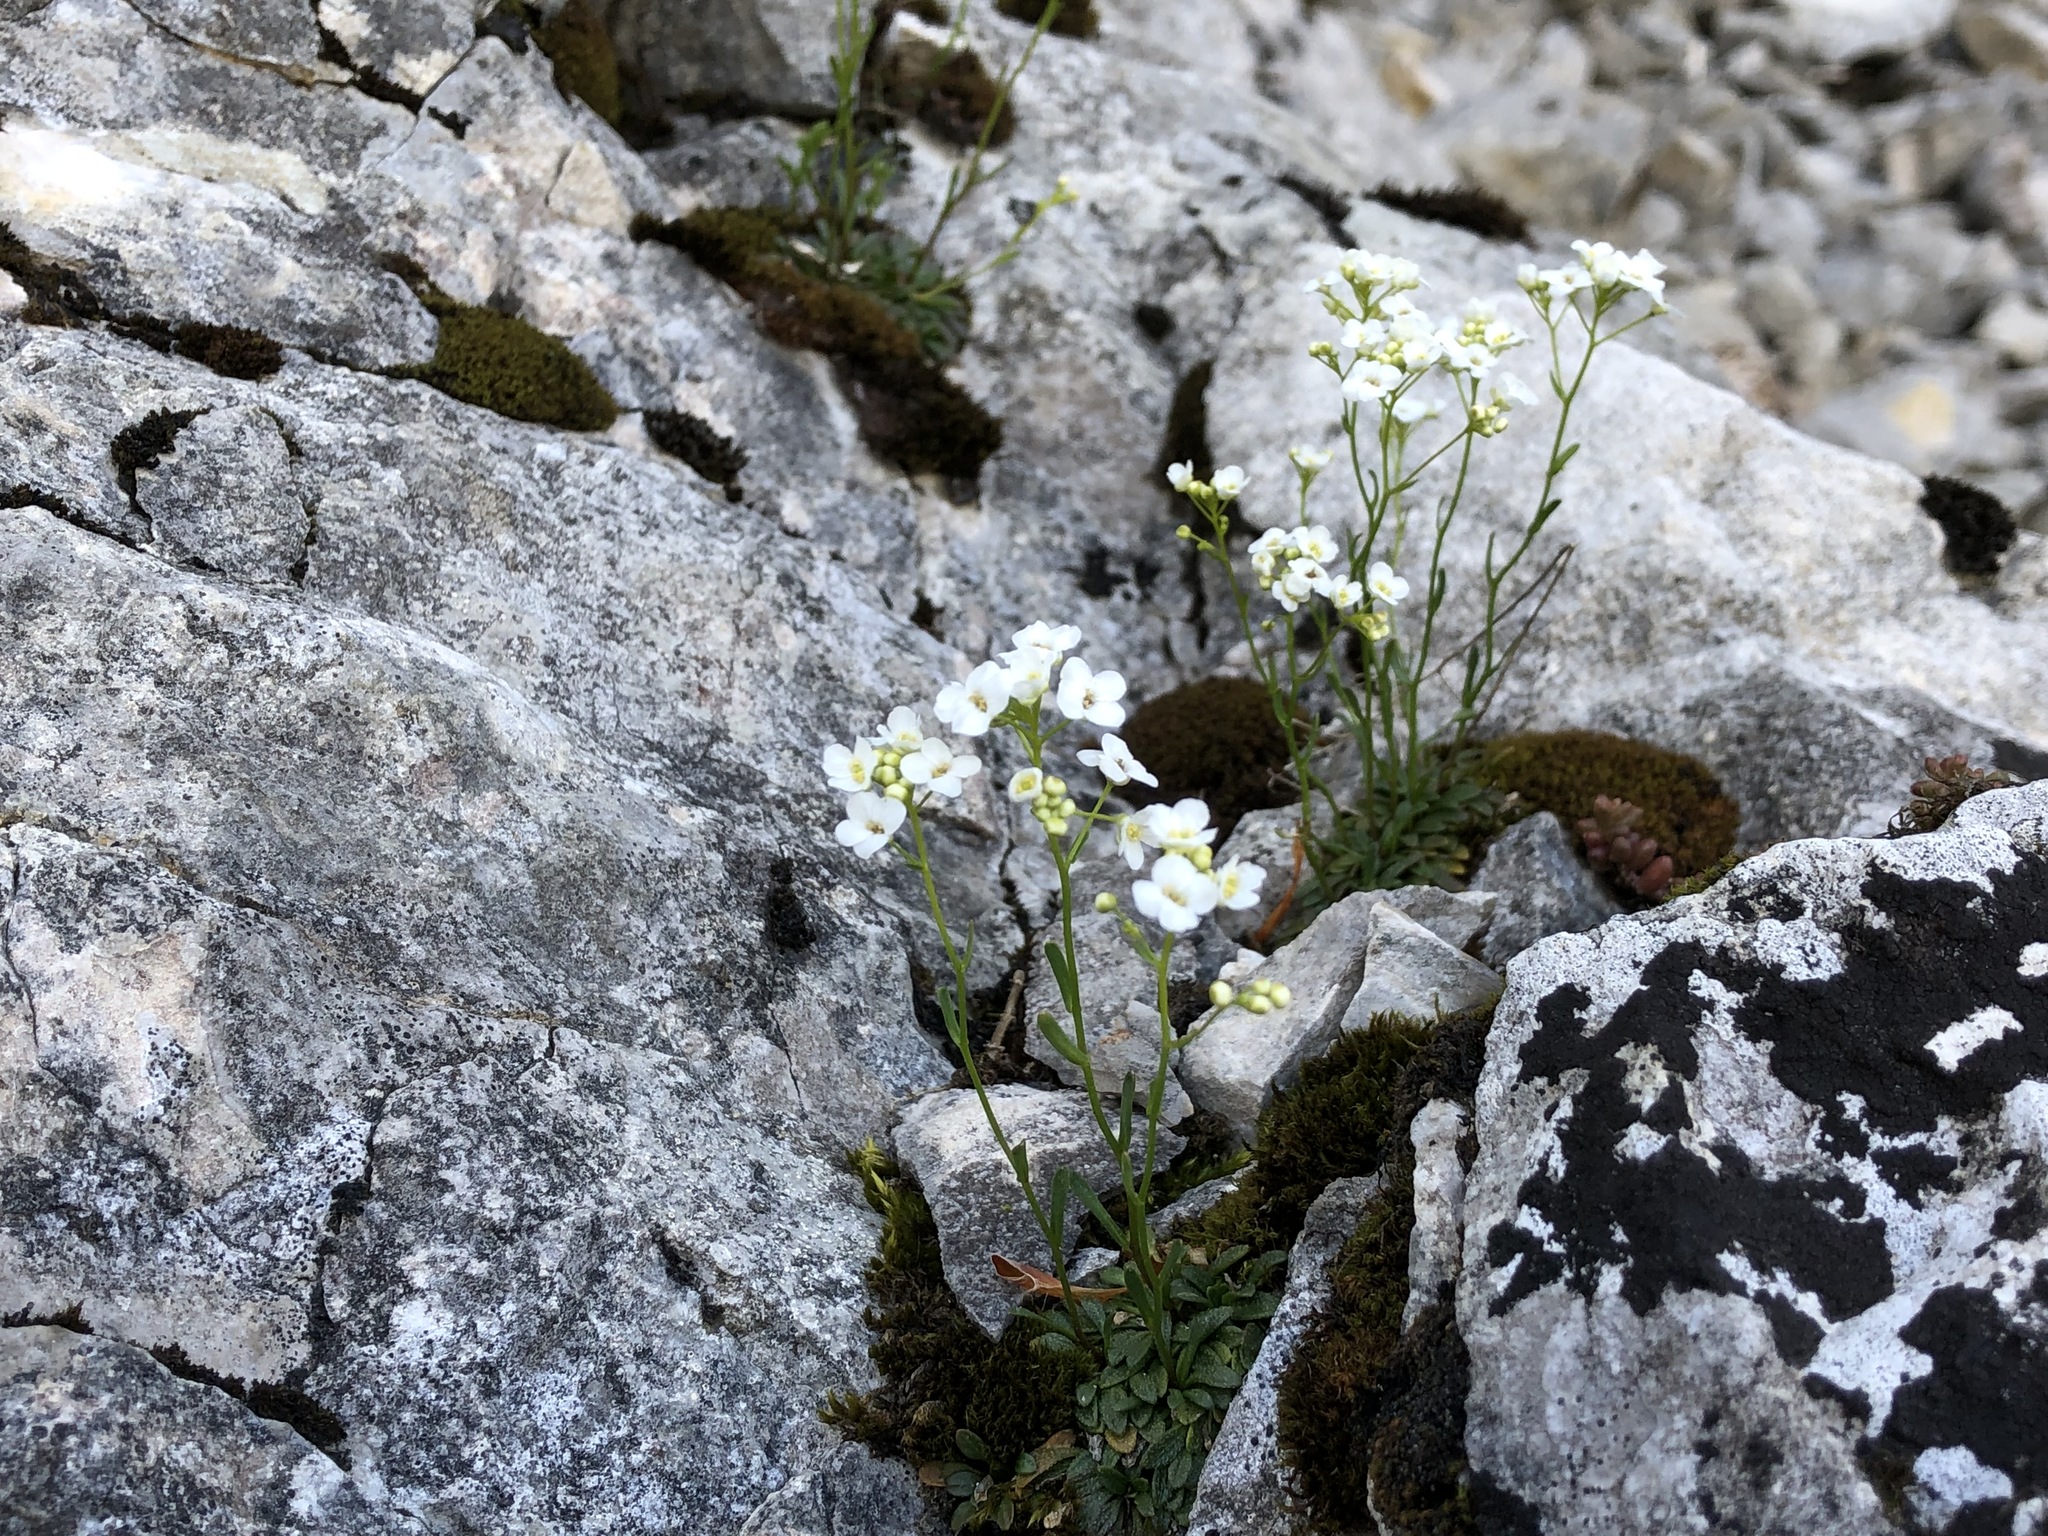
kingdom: Plantae
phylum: Tracheophyta
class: Magnoliopsida
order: Brassicales
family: Brassicaceae
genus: Kernera
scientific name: Kernera saxatilis
